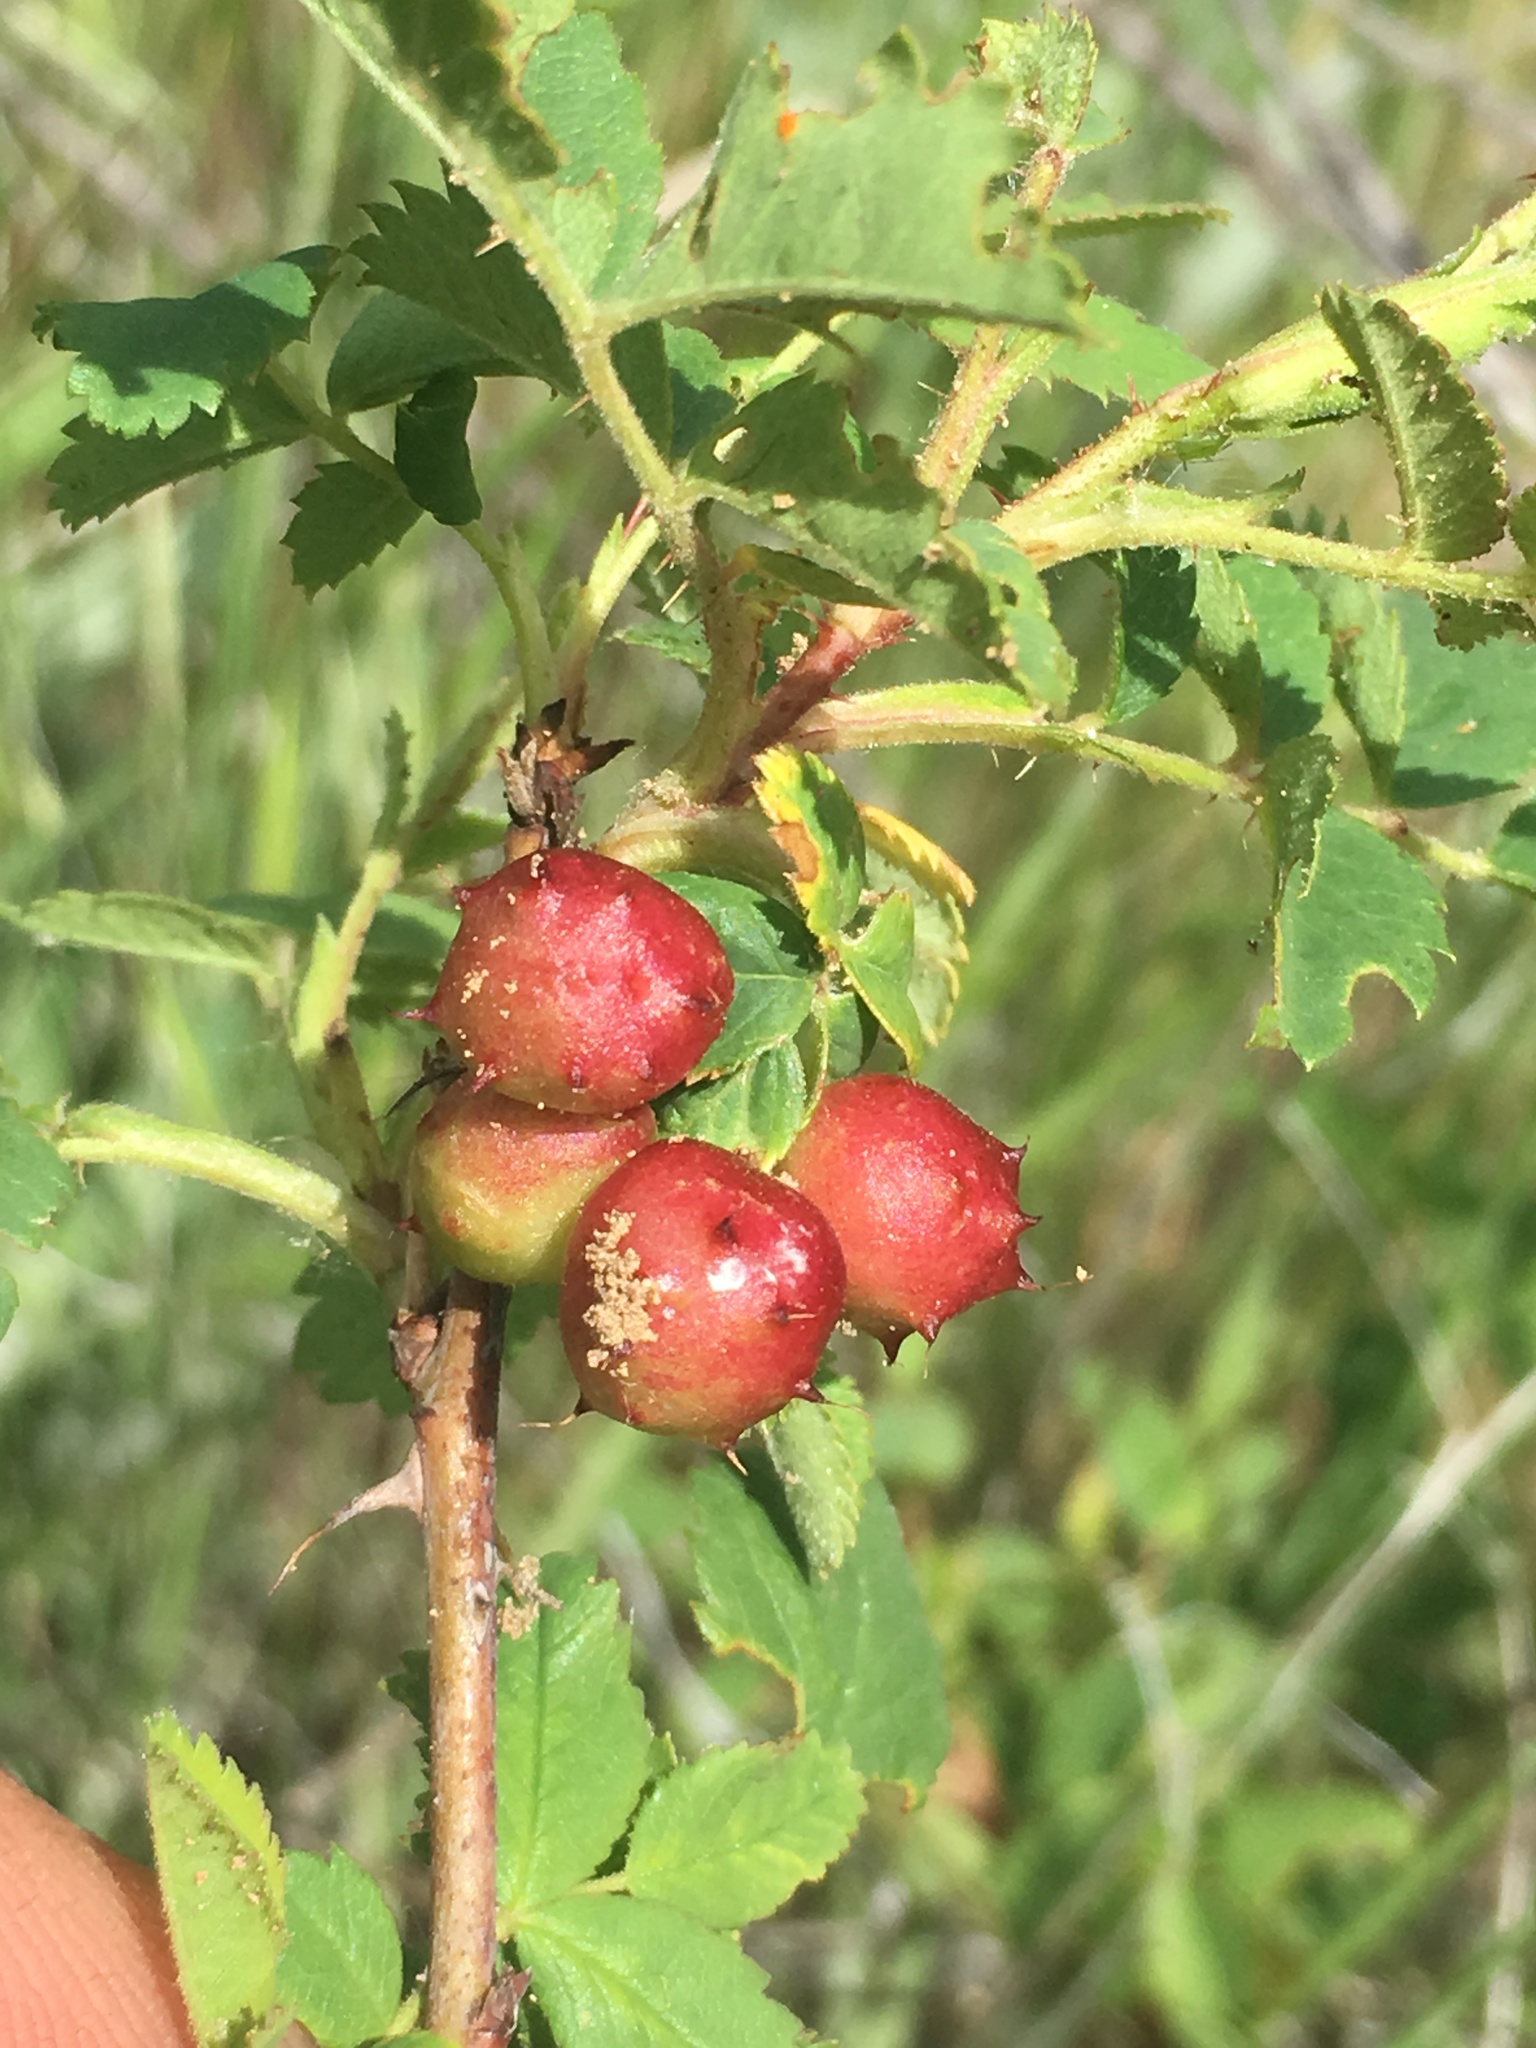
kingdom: Animalia
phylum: Arthropoda
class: Insecta
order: Hymenoptera
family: Cynipidae
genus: Diplolepis
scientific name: Diplolepis polita
